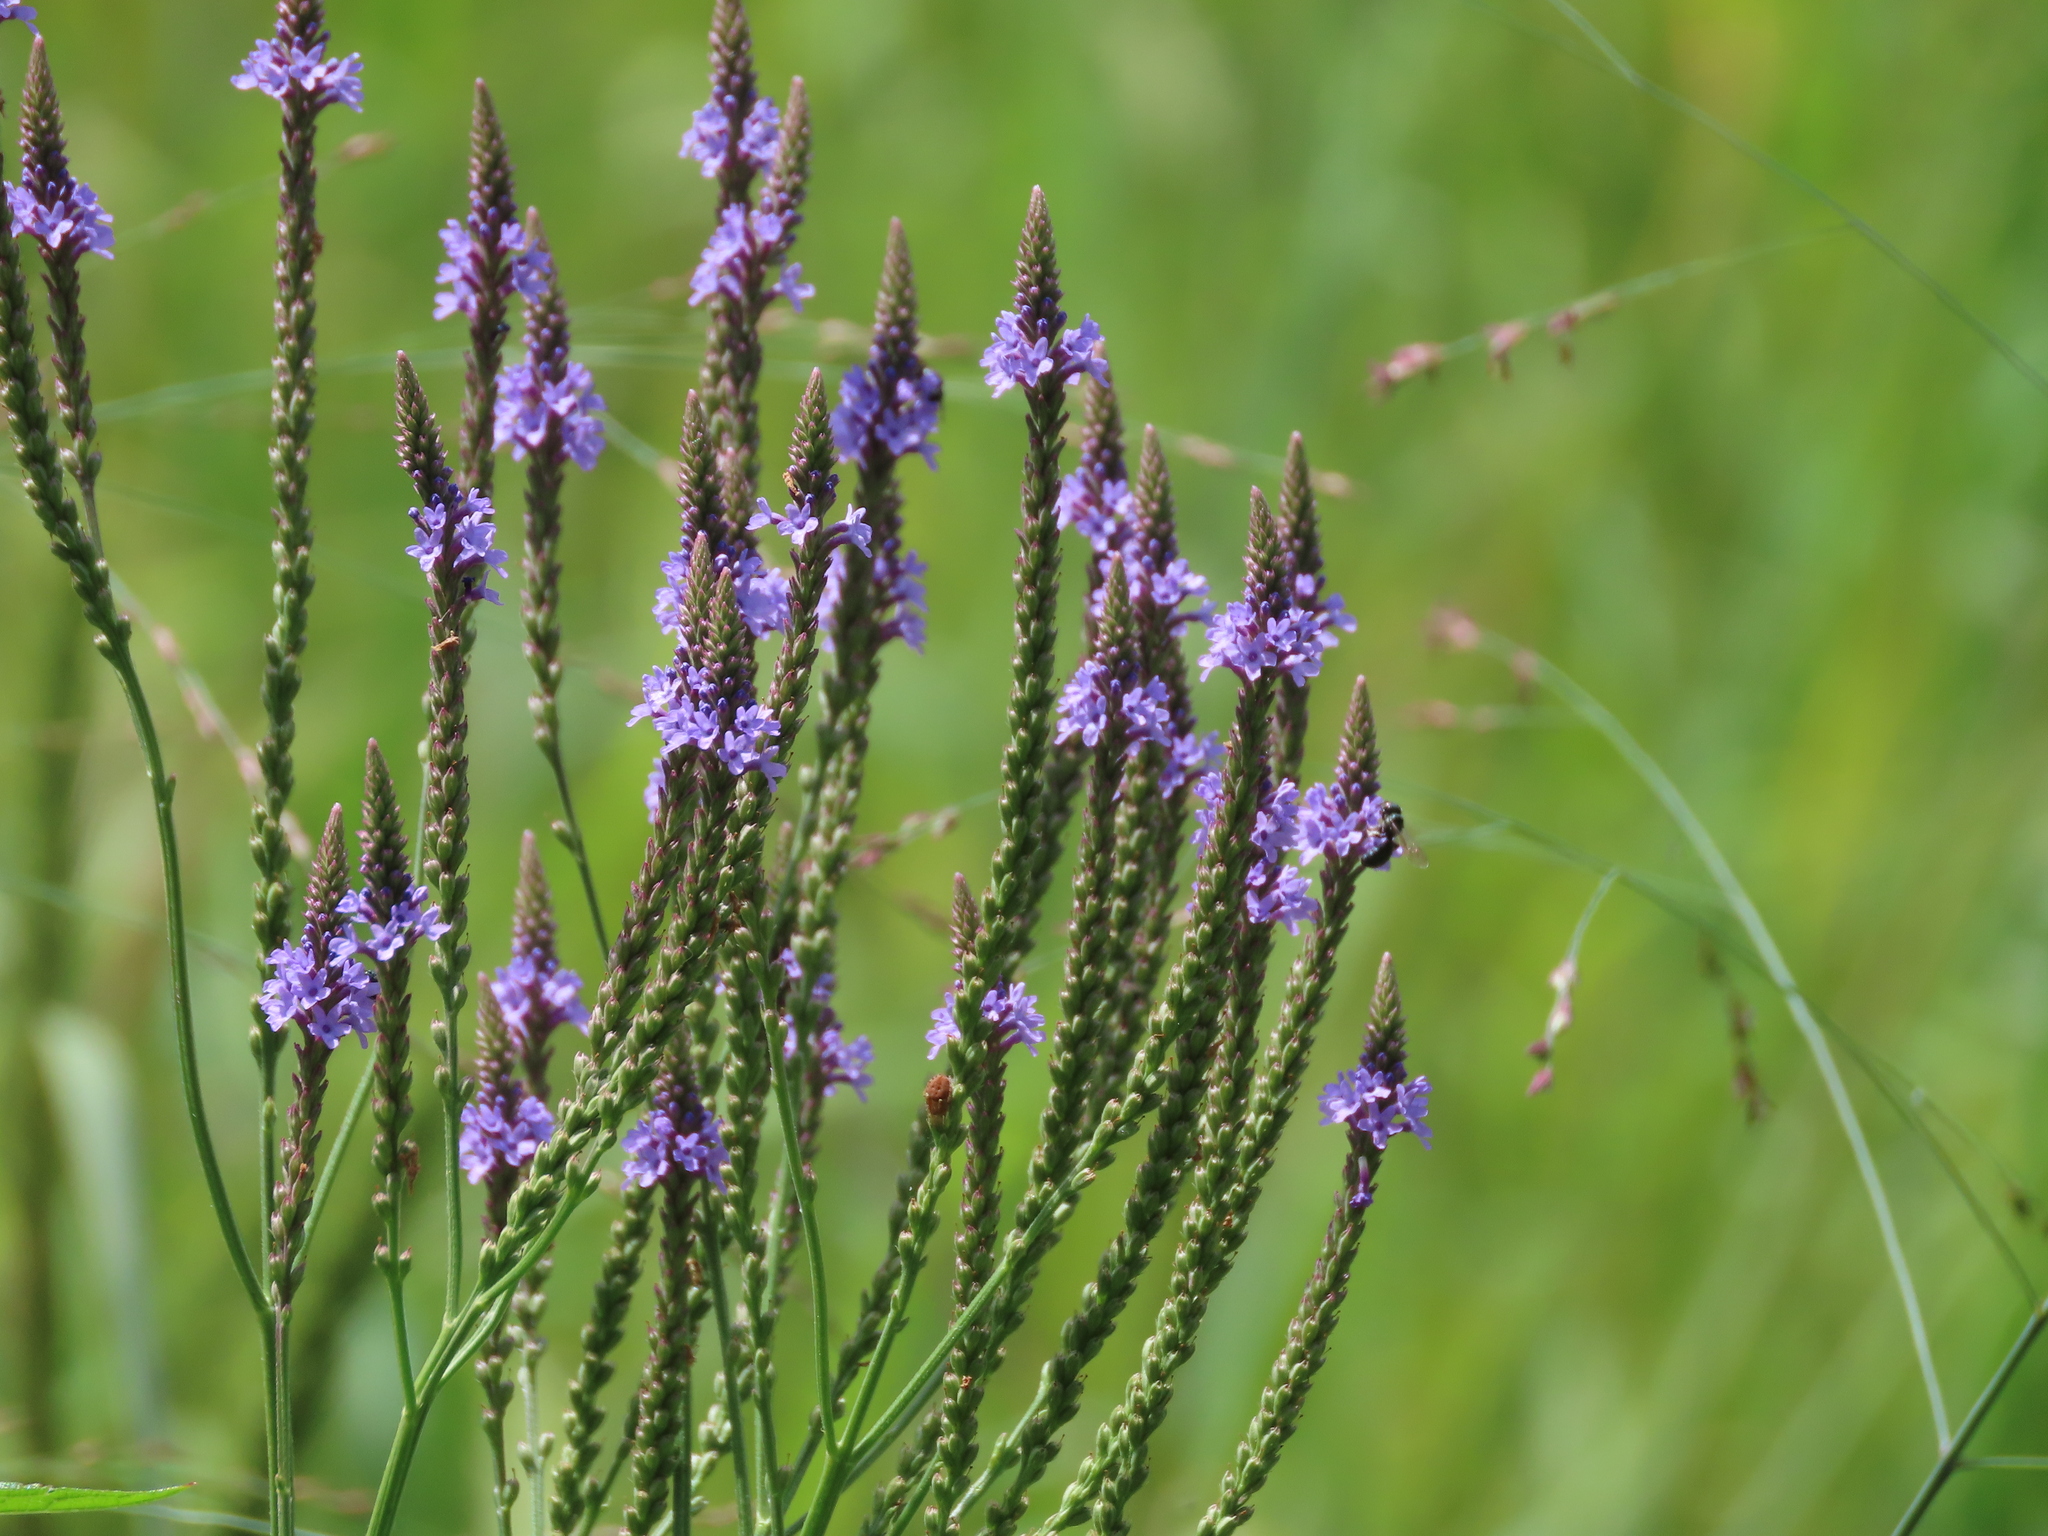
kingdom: Plantae
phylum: Tracheophyta
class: Magnoliopsida
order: Lamiales
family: Verbenaceae
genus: Verbena
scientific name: Verbena hastata
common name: American blue vervain
